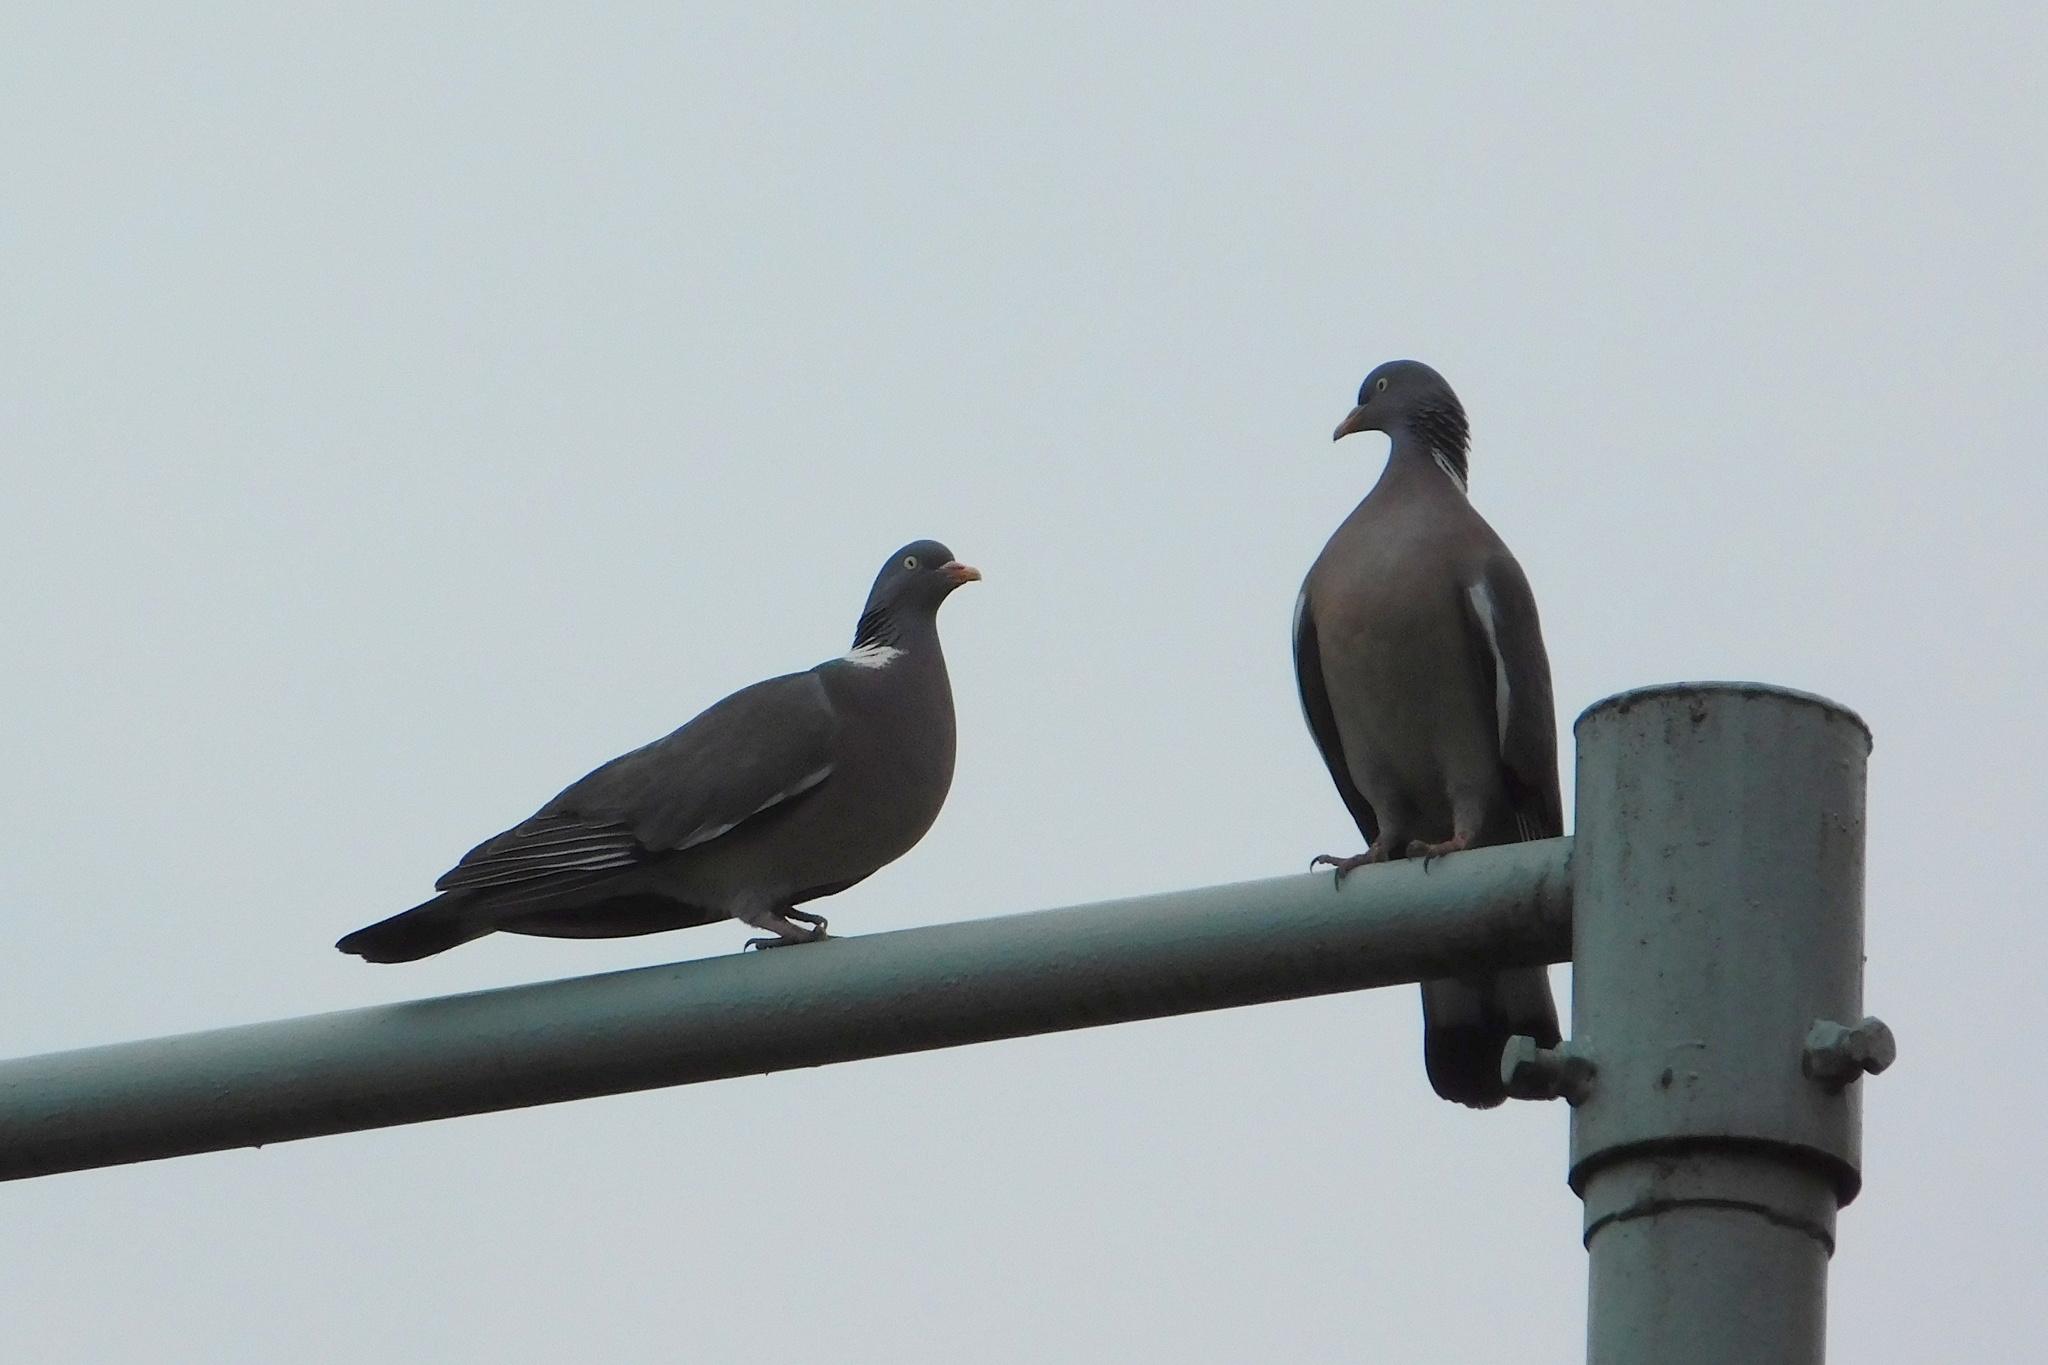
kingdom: Animalia
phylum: Chordata
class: Aves
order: Columbiformes
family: Columbidae
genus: Columba
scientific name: Columba palumbus
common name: Common wood pigeon
